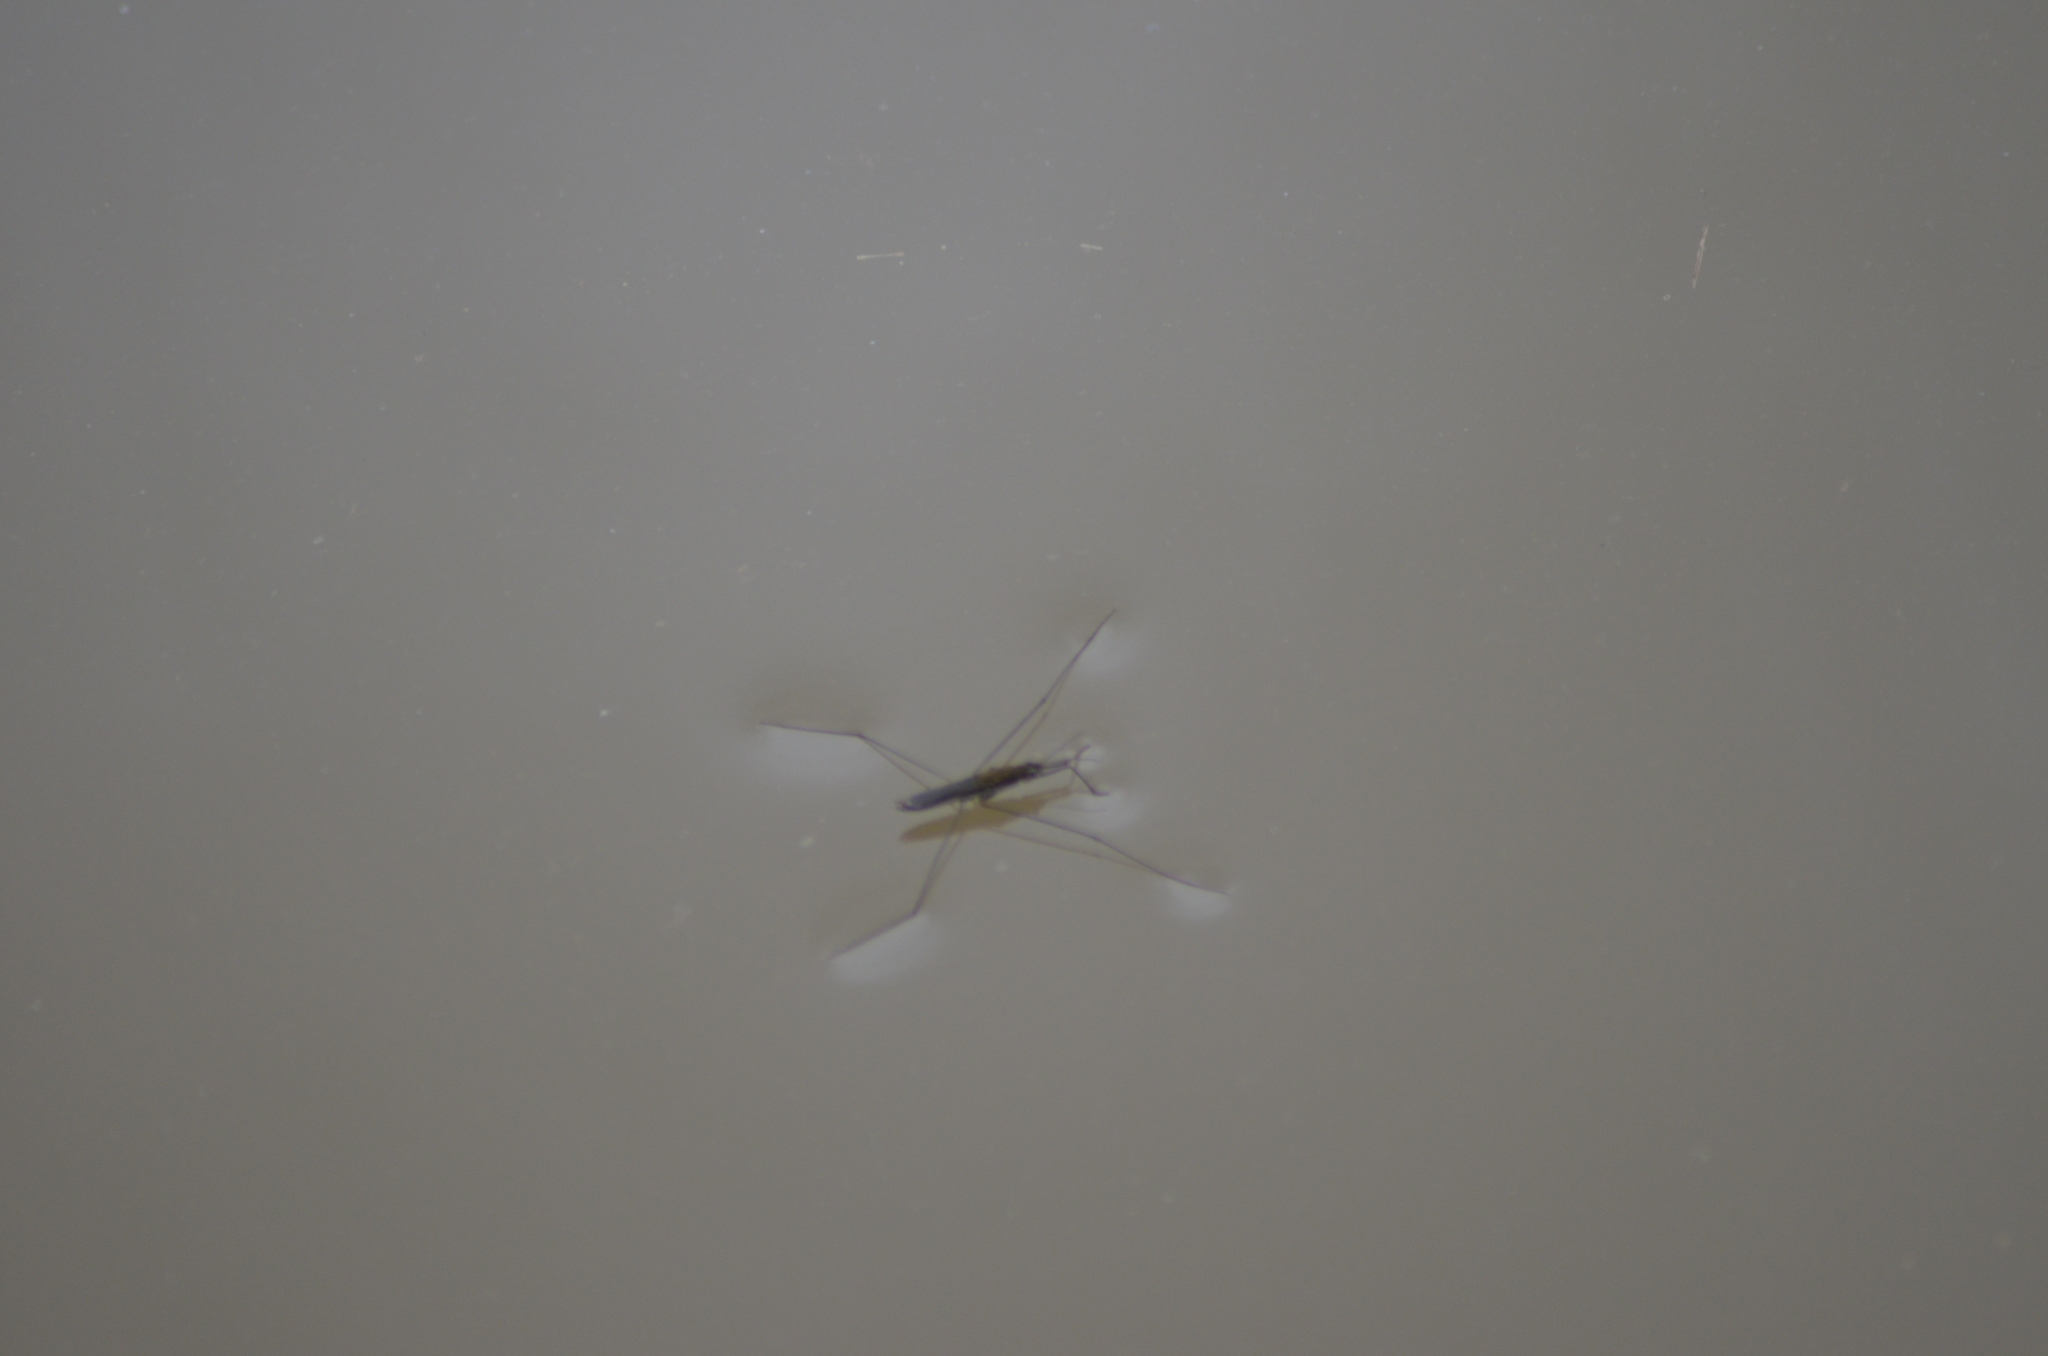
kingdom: Animalia
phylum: Arthropoda
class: Insecta
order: Hemiptera
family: Gerridae
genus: Aquarius
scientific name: Aquarius paludum
